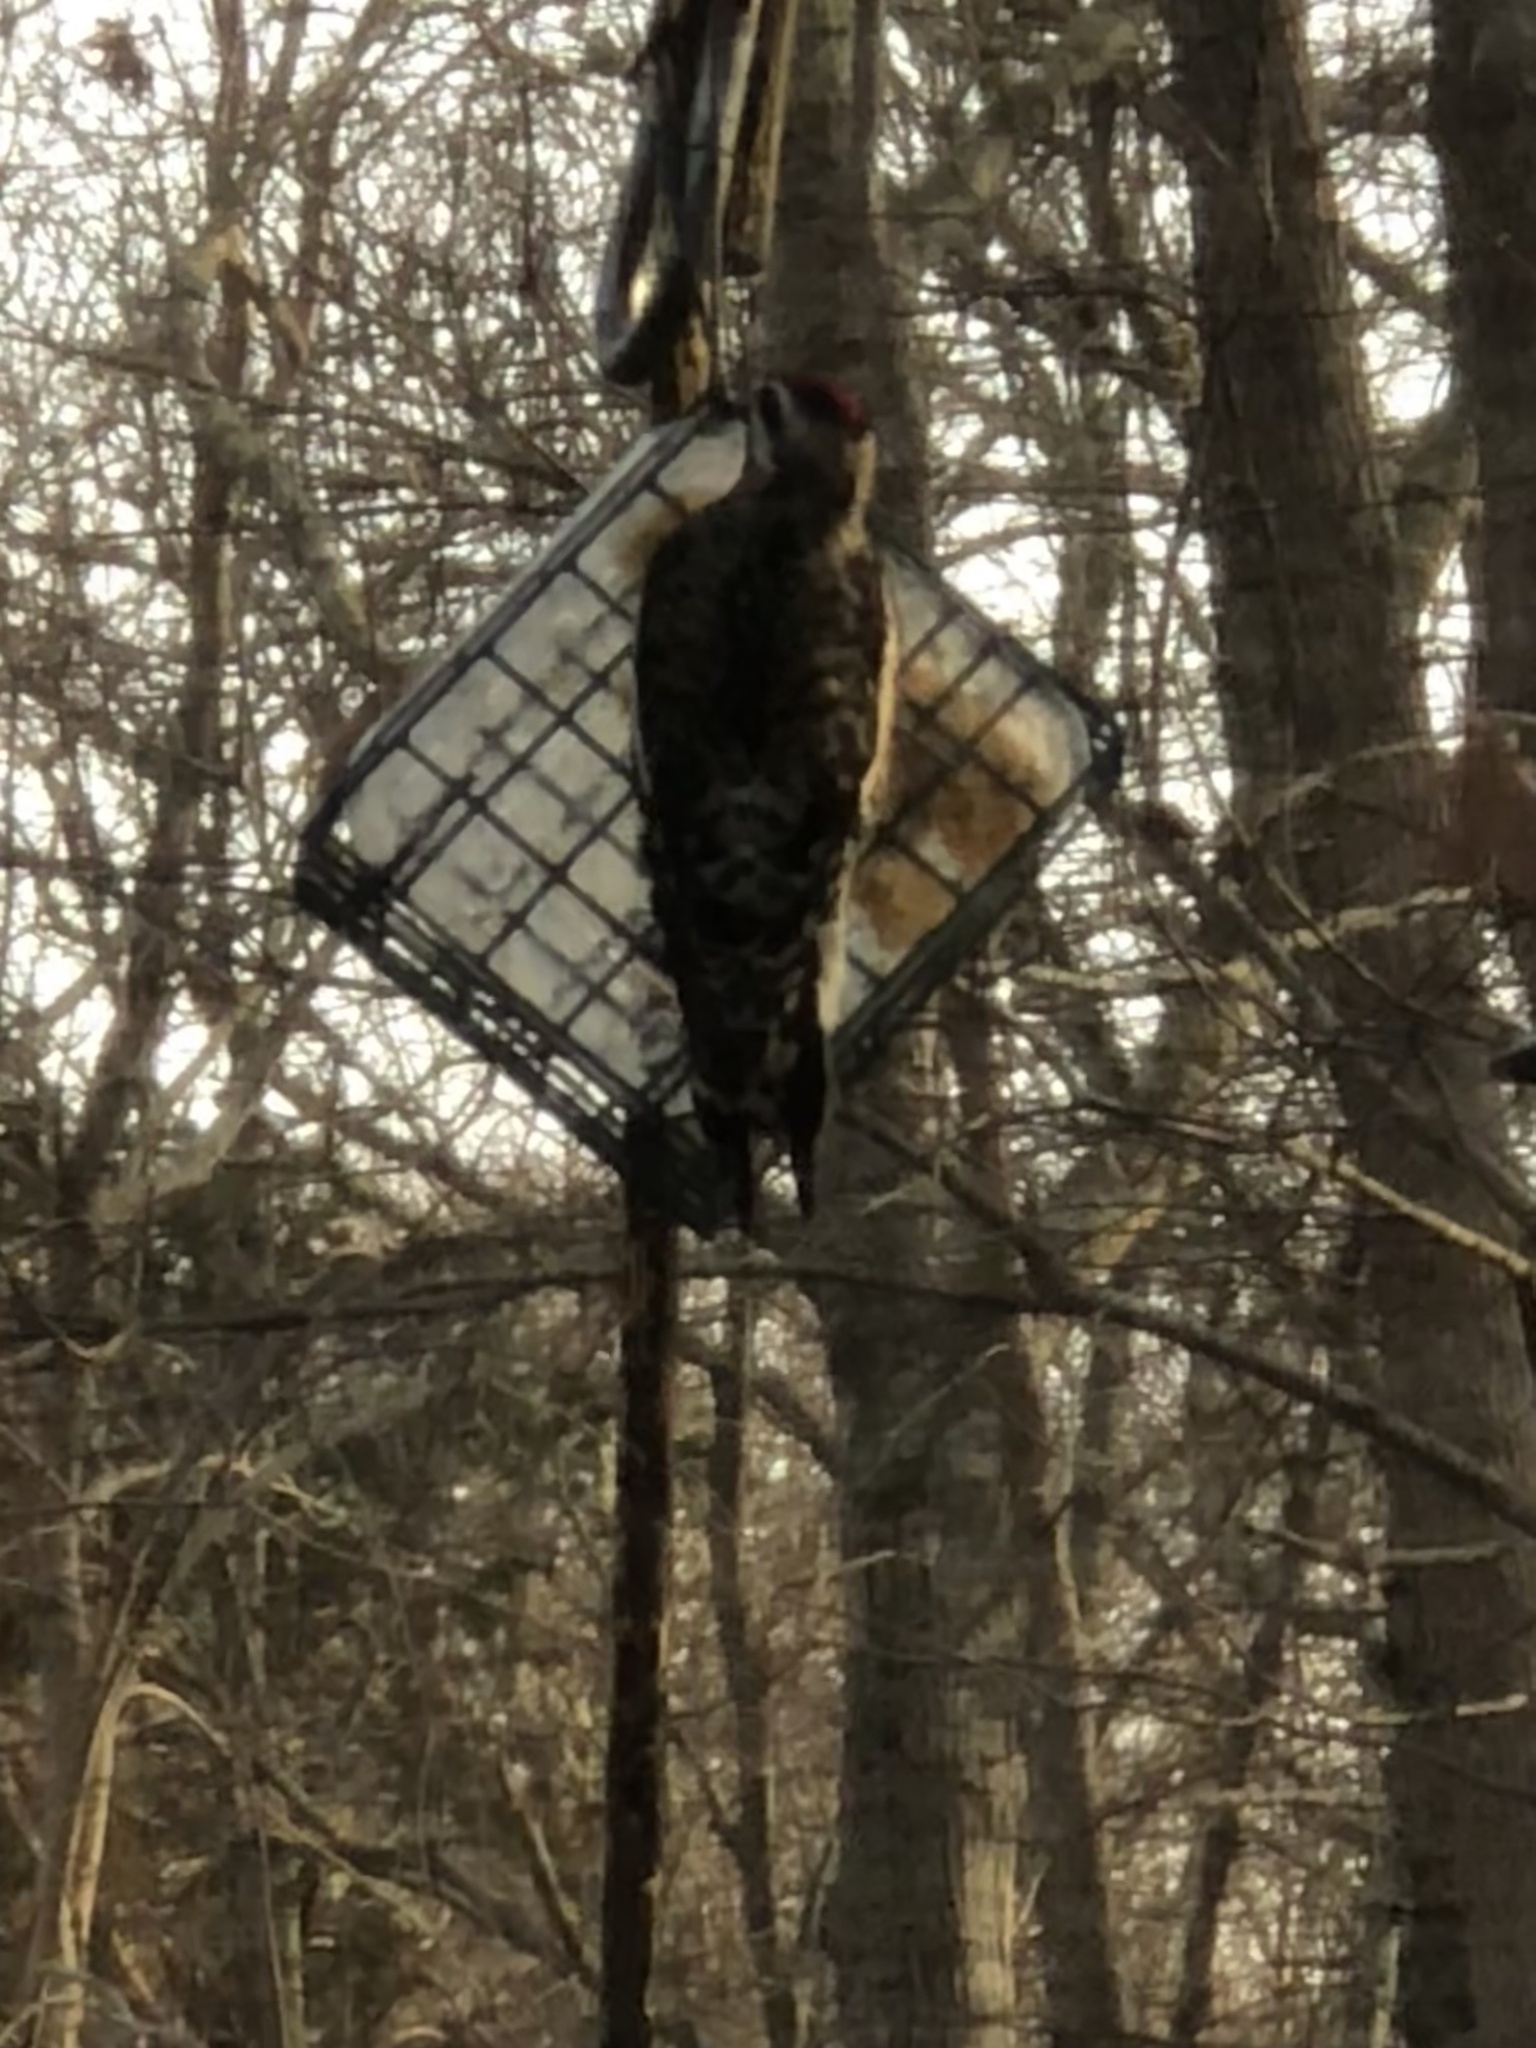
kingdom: Animalia
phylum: Chordata
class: Aves
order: Piciformes
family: Picidae
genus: Sphyrapicus
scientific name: Sphyrapicus varius
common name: Yellow-bellied sapsucker
